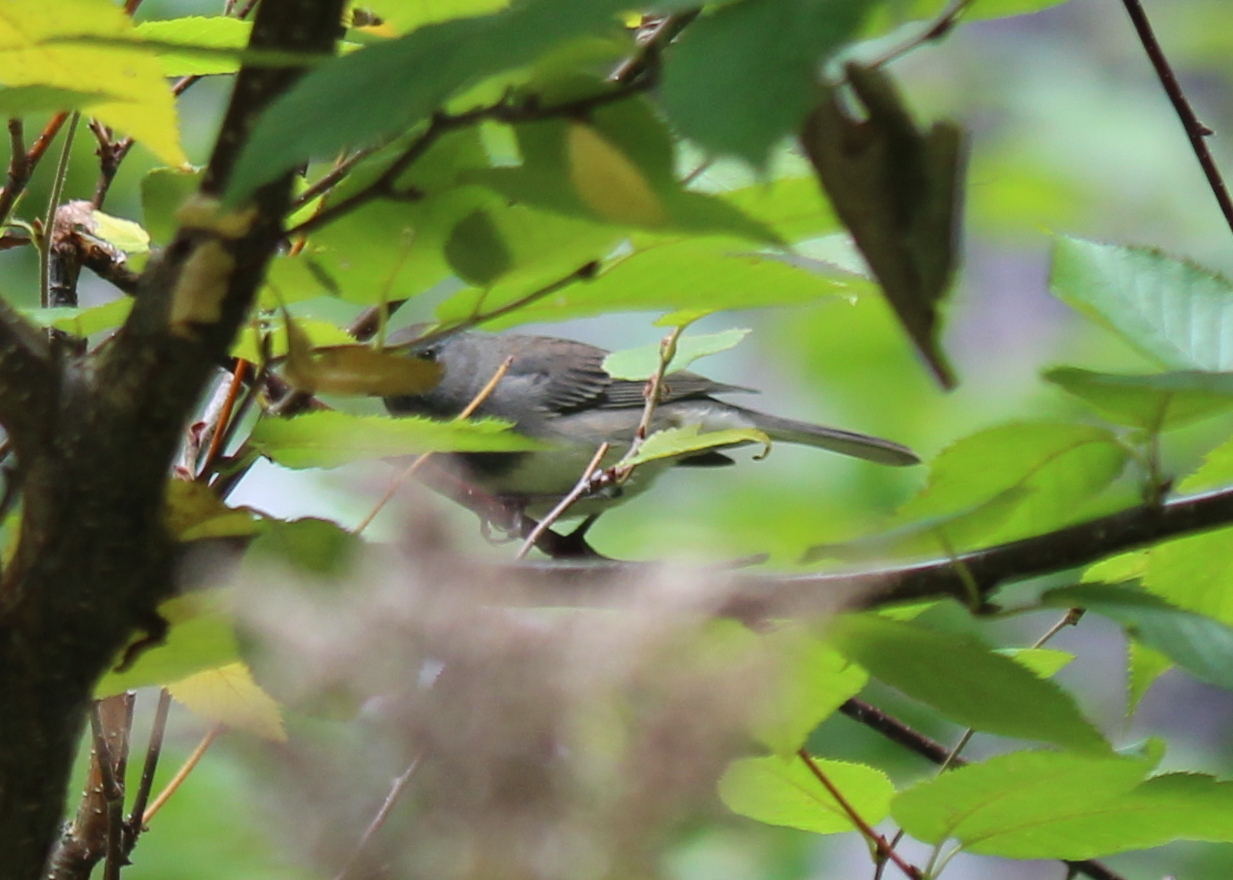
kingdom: Animalia
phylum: Chordata
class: Aves
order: Passeriformes
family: Passerellidae
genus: Junco
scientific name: Junco hyemalis
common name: Dark-eyed junco
